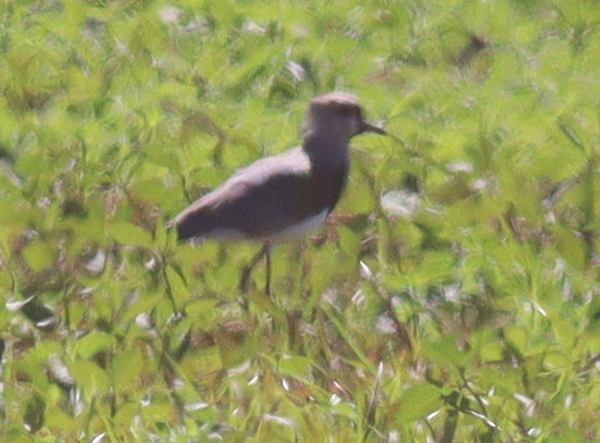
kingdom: Animalia
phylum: Chordata
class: Aves
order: Charadriiformes
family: Charadriidae
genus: Vanellus
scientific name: Vanellus chilensis
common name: Southern lapwing
